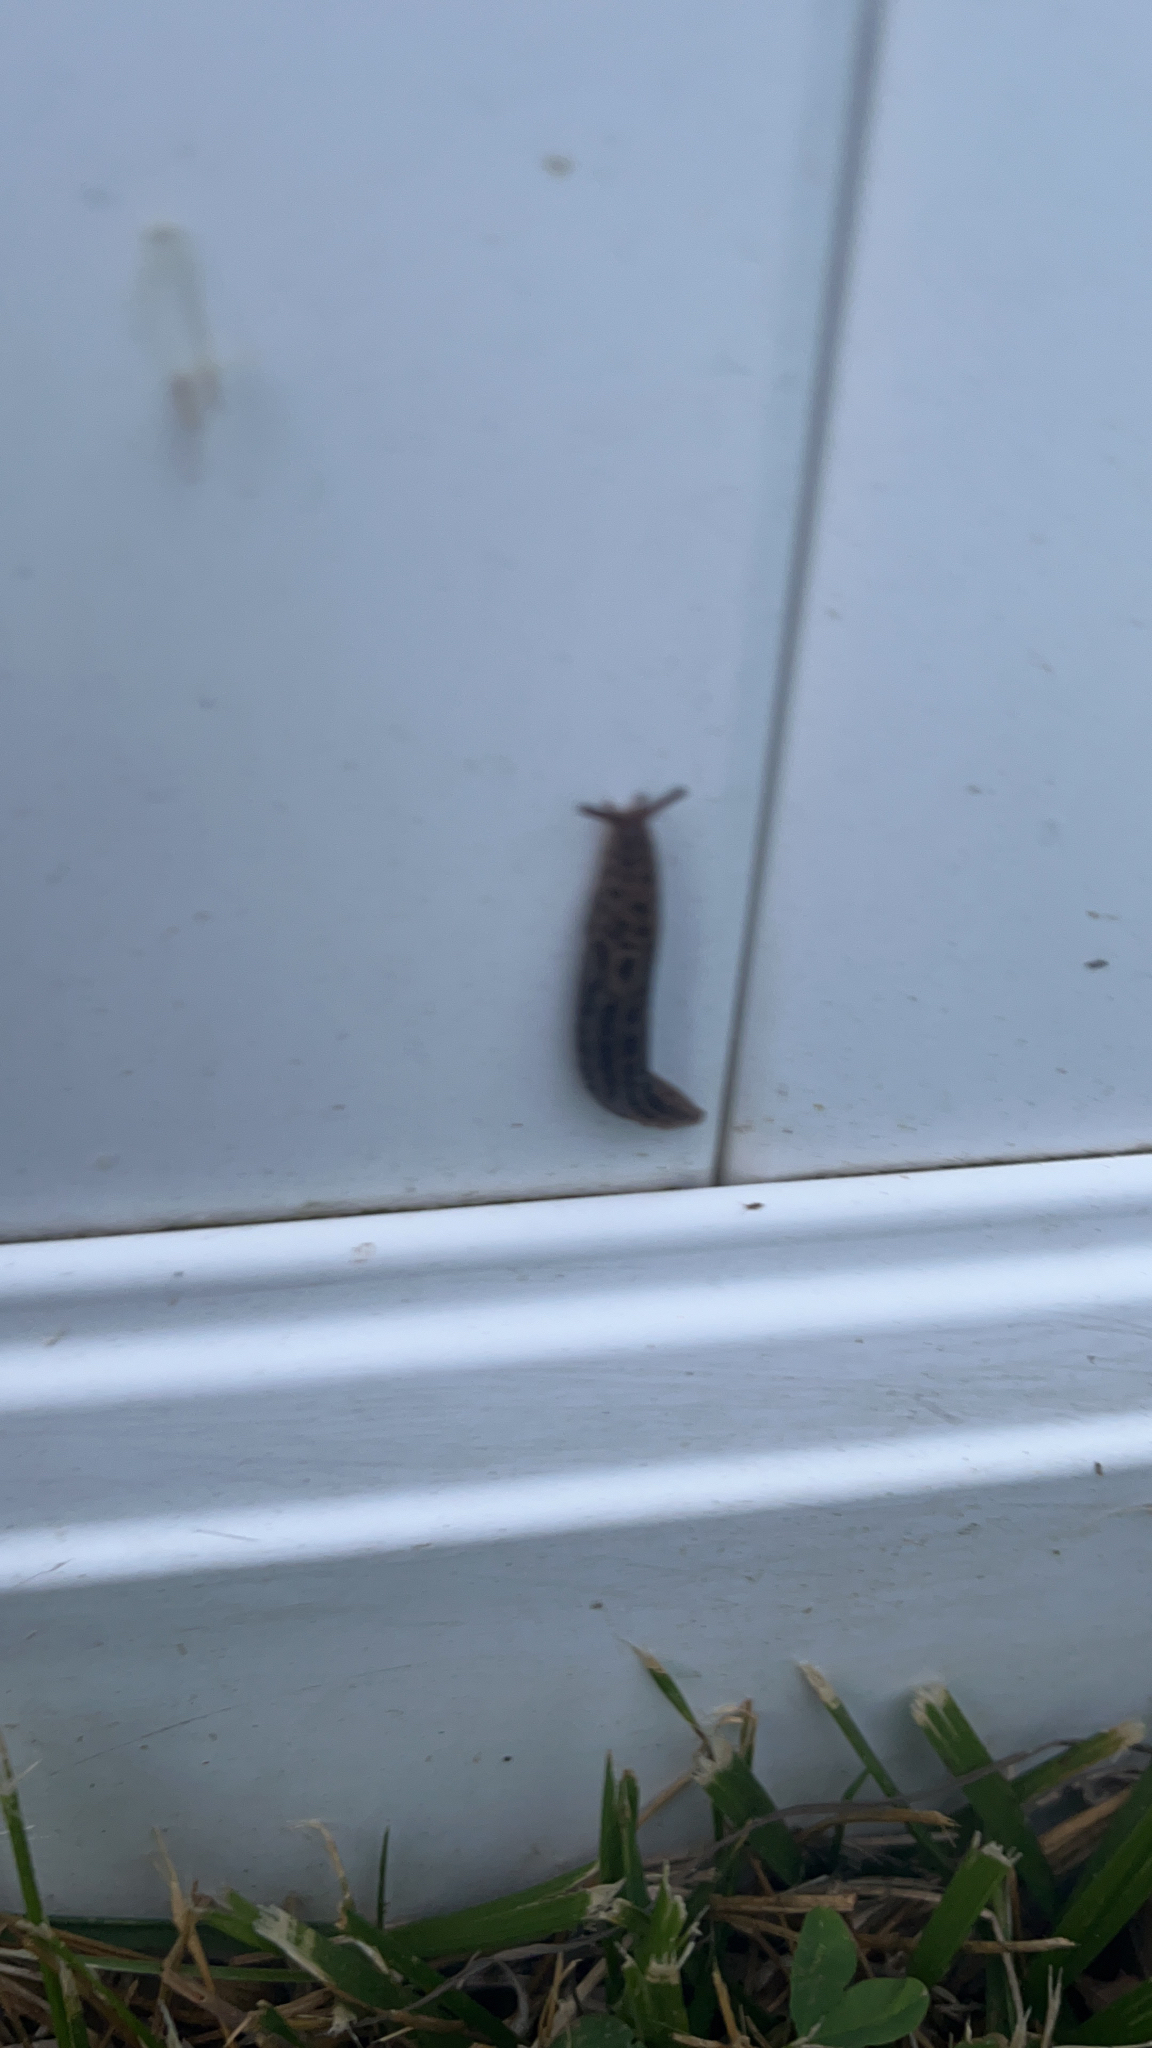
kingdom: Animalia
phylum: Mollusca
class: Gastropoda
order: Stylommatophora
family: Limacidae
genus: Limax
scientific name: Limax maximus
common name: Great grey slug
